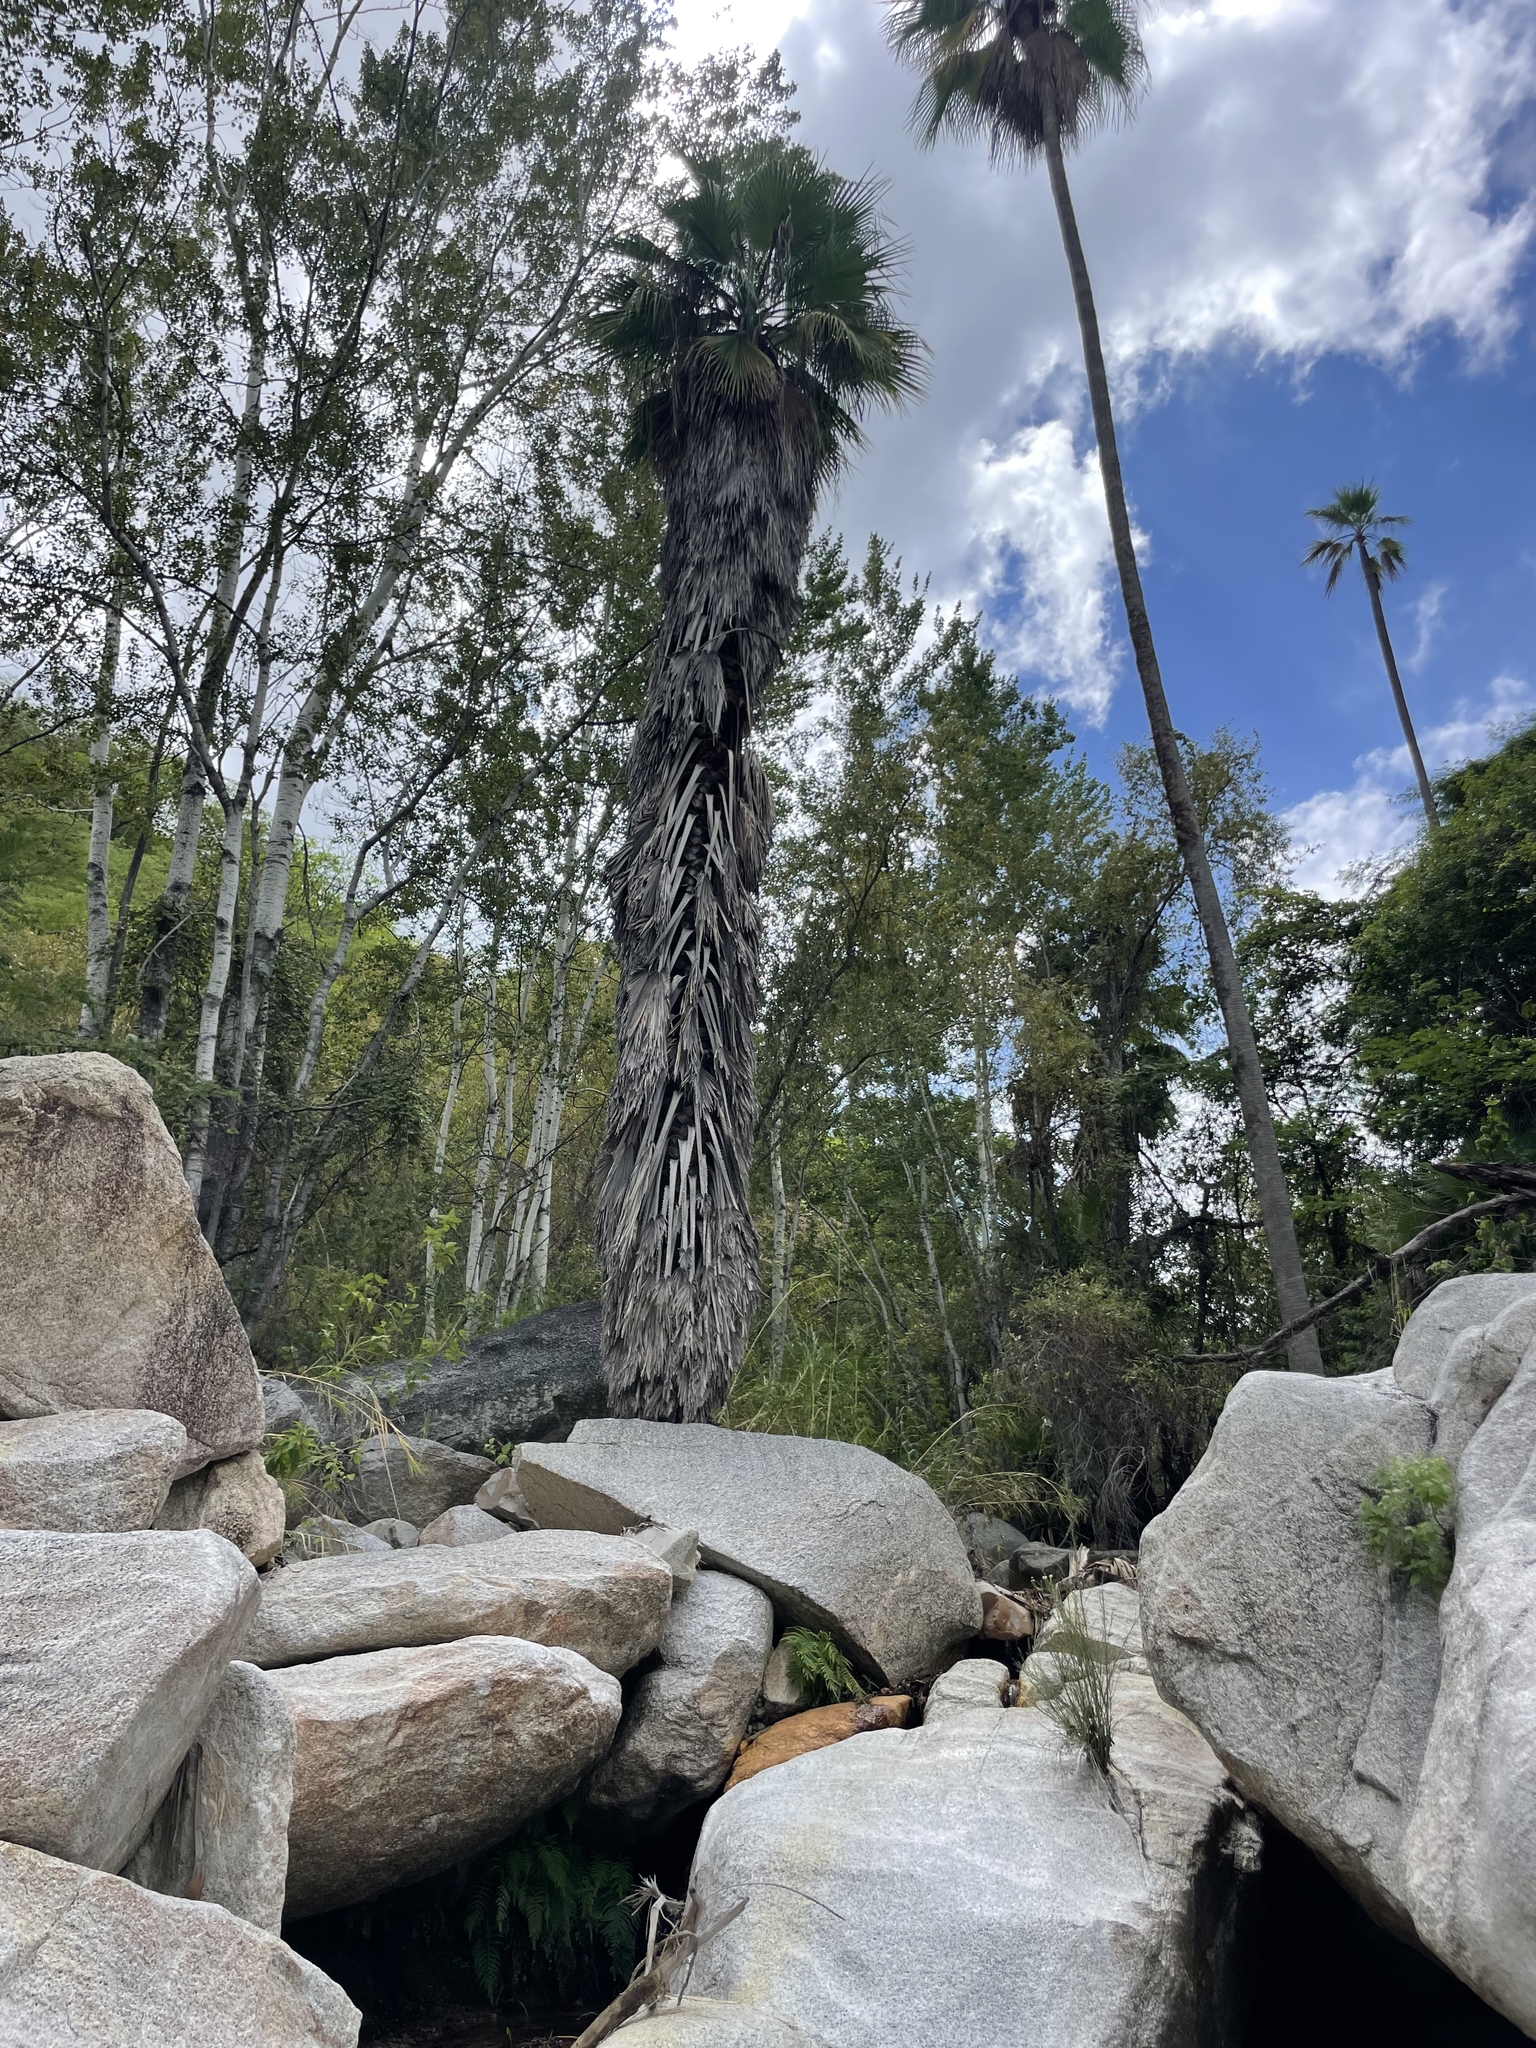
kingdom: Plantae
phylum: Tracheophyta
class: Liliopsida
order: Arecales
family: Arecaceae
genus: Washingtonia
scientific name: Washingtonia robusta
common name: Mexican fan palm
